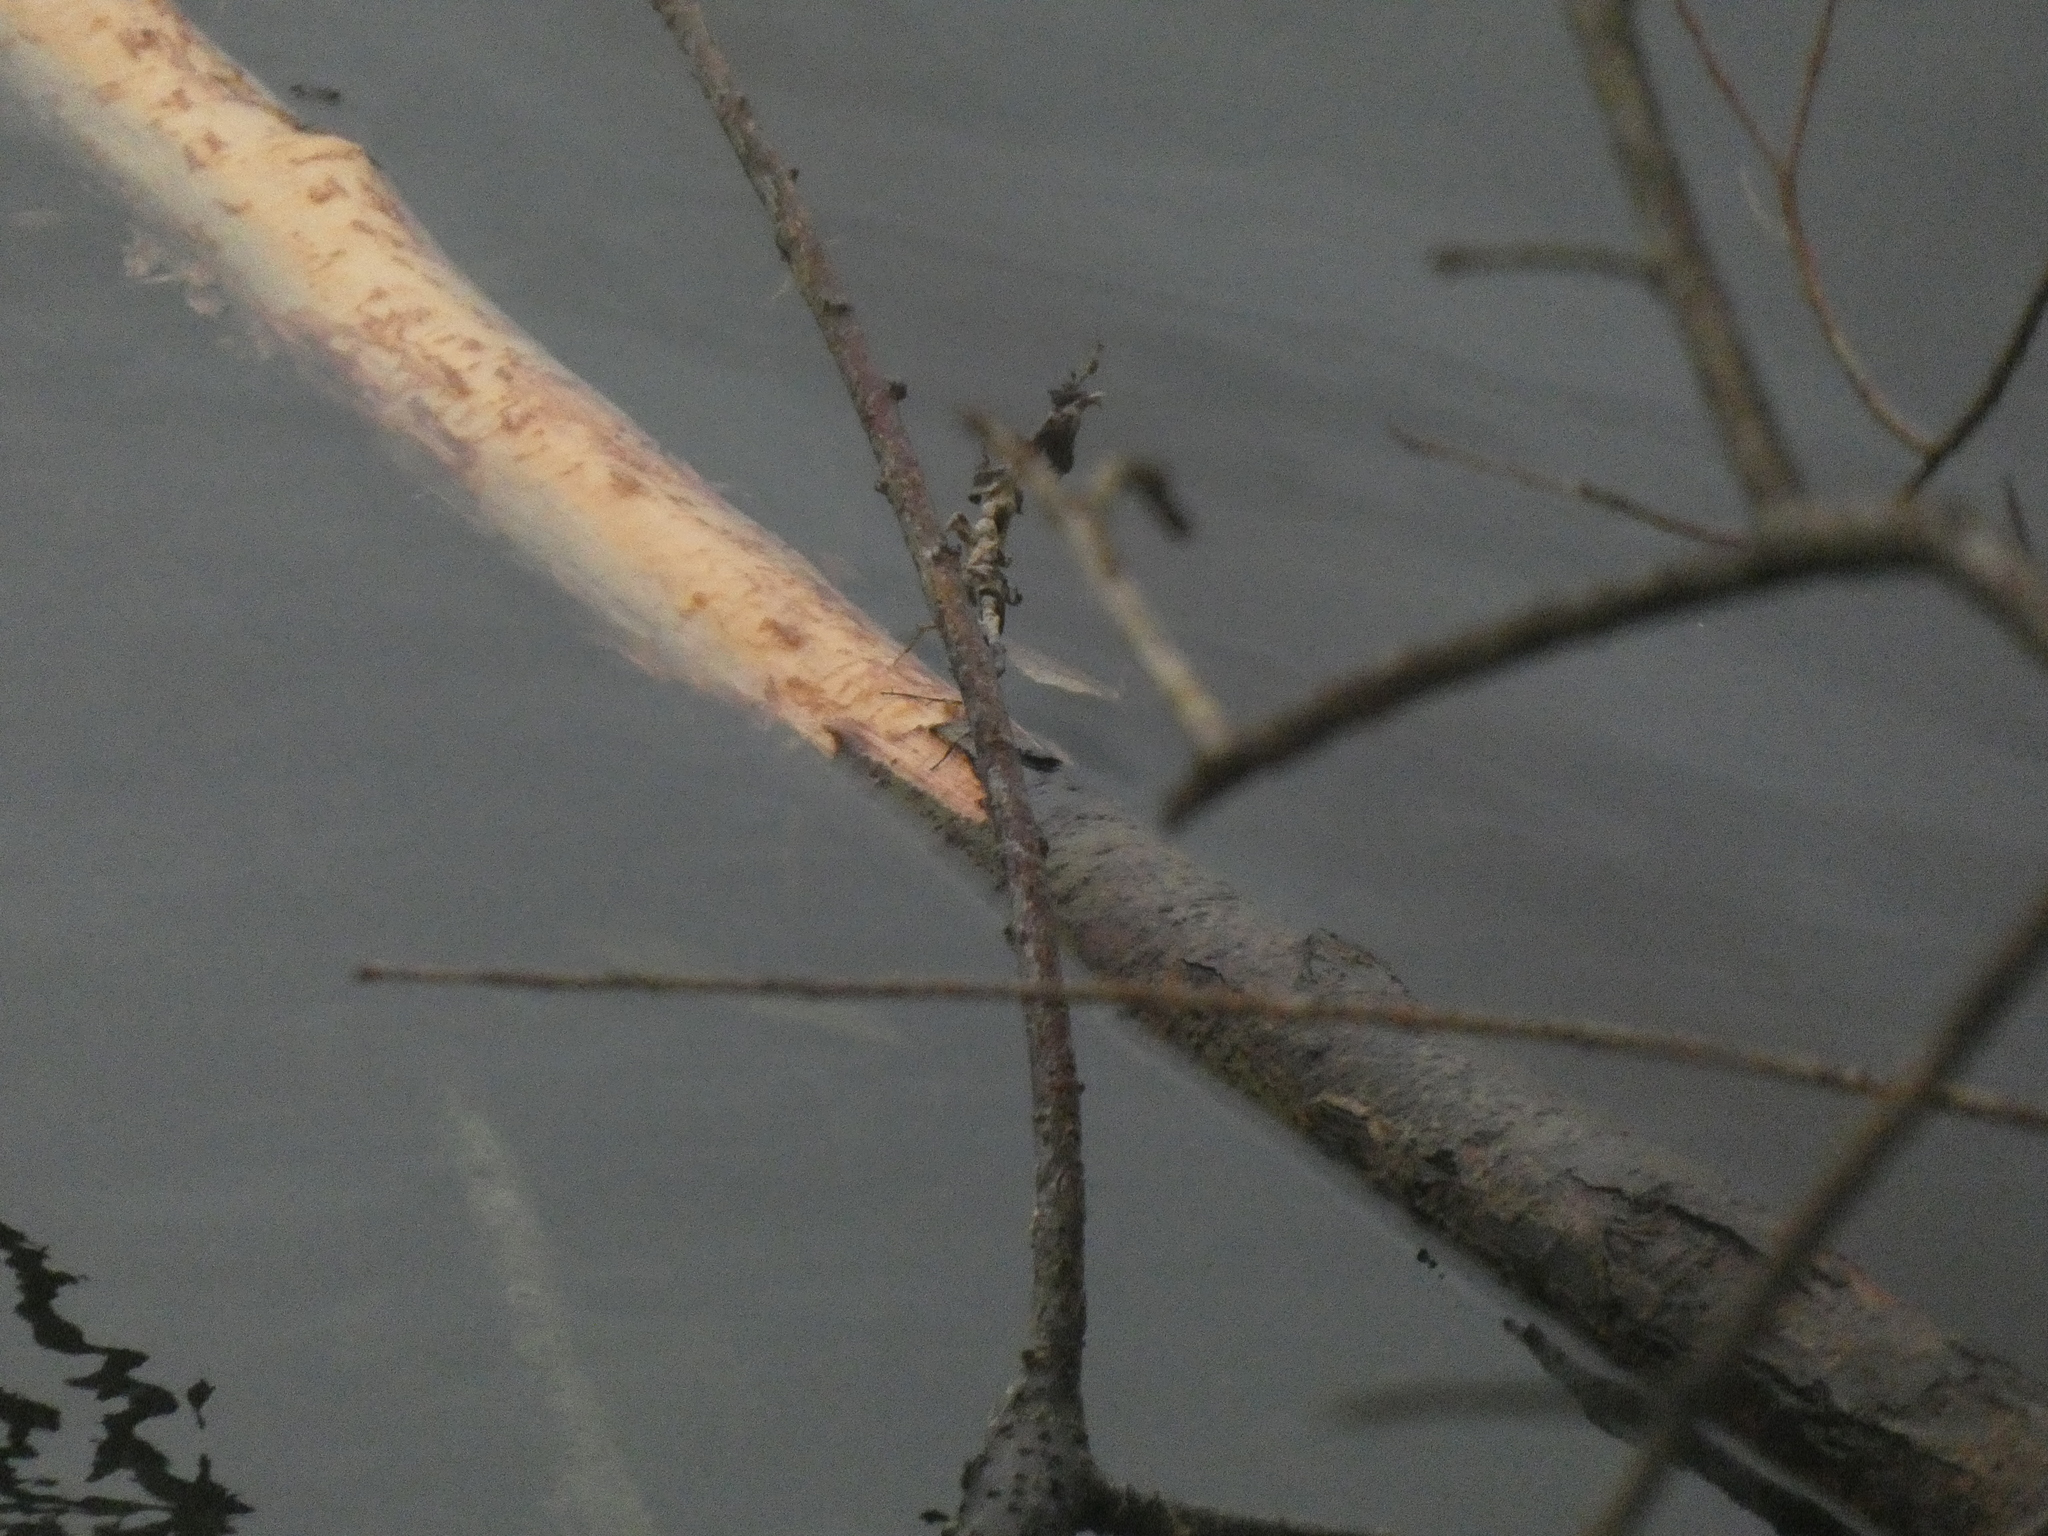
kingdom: Animalia
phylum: Chordata
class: Mammalia
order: Rodentia
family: Castoridae
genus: Castor
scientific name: Castor fiber
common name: Eurasian beaver
